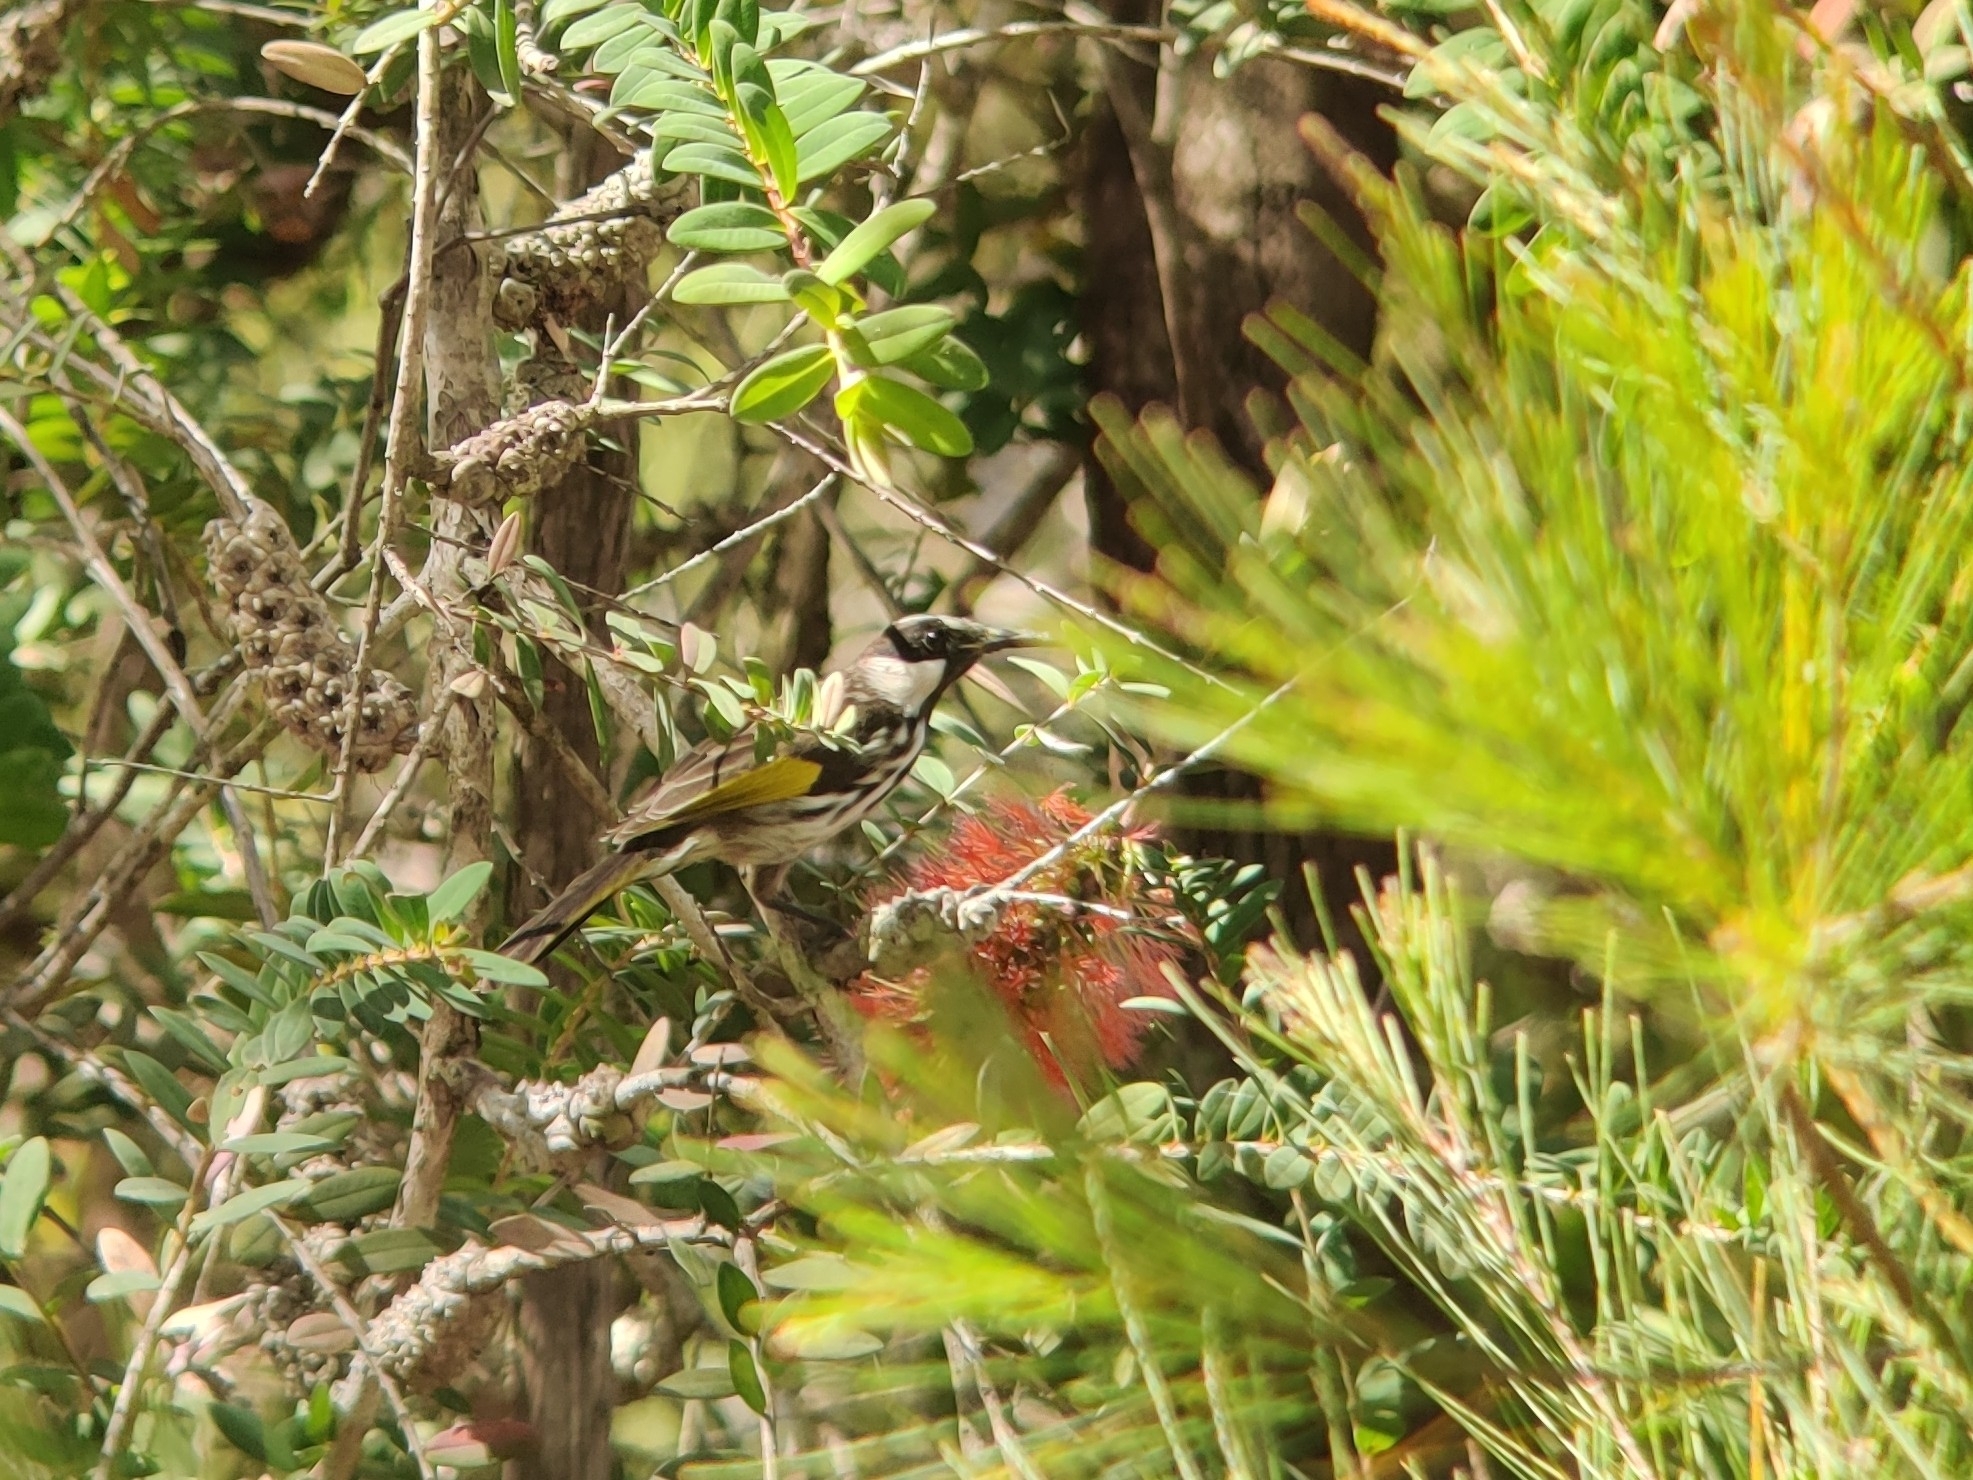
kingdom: Animalia
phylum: Chordata
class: Aves
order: Passeriformes
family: Meliphagidae
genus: Phylidonyris
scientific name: Phylidonyris niger
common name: White-cheeked honeyeater
